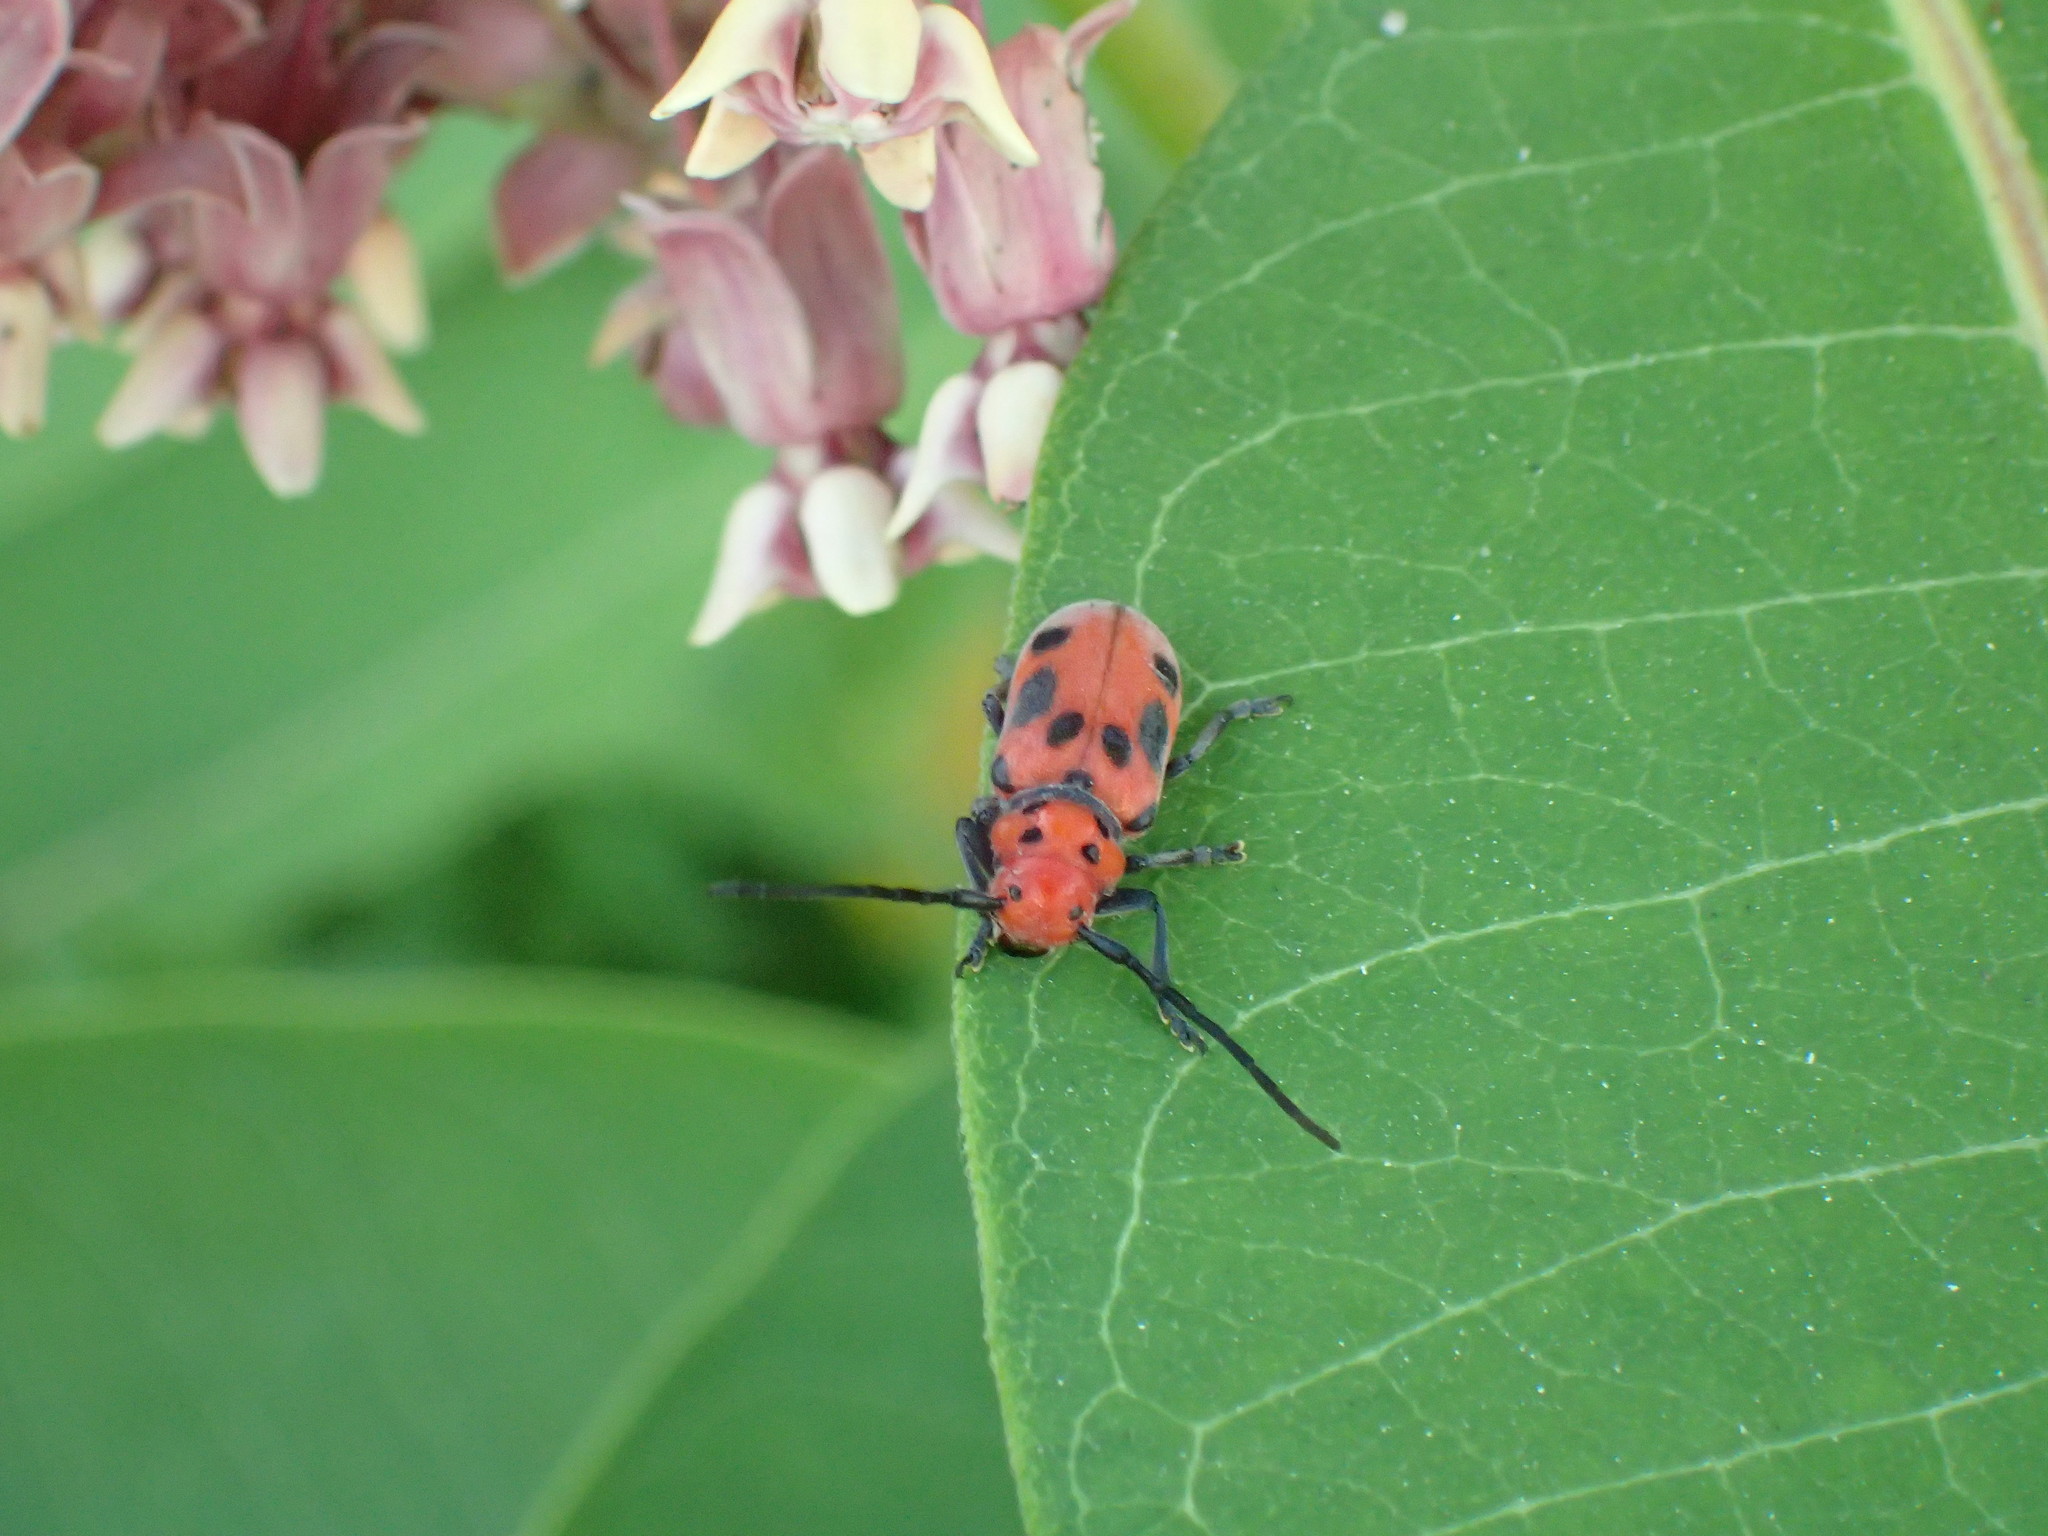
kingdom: Animalia
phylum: Arthropoda
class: Insecta
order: Coleoptera
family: Cerambycidae
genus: Tetraopes
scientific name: Tetraopes tetrophthalmus
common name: Red milkweed beetle
